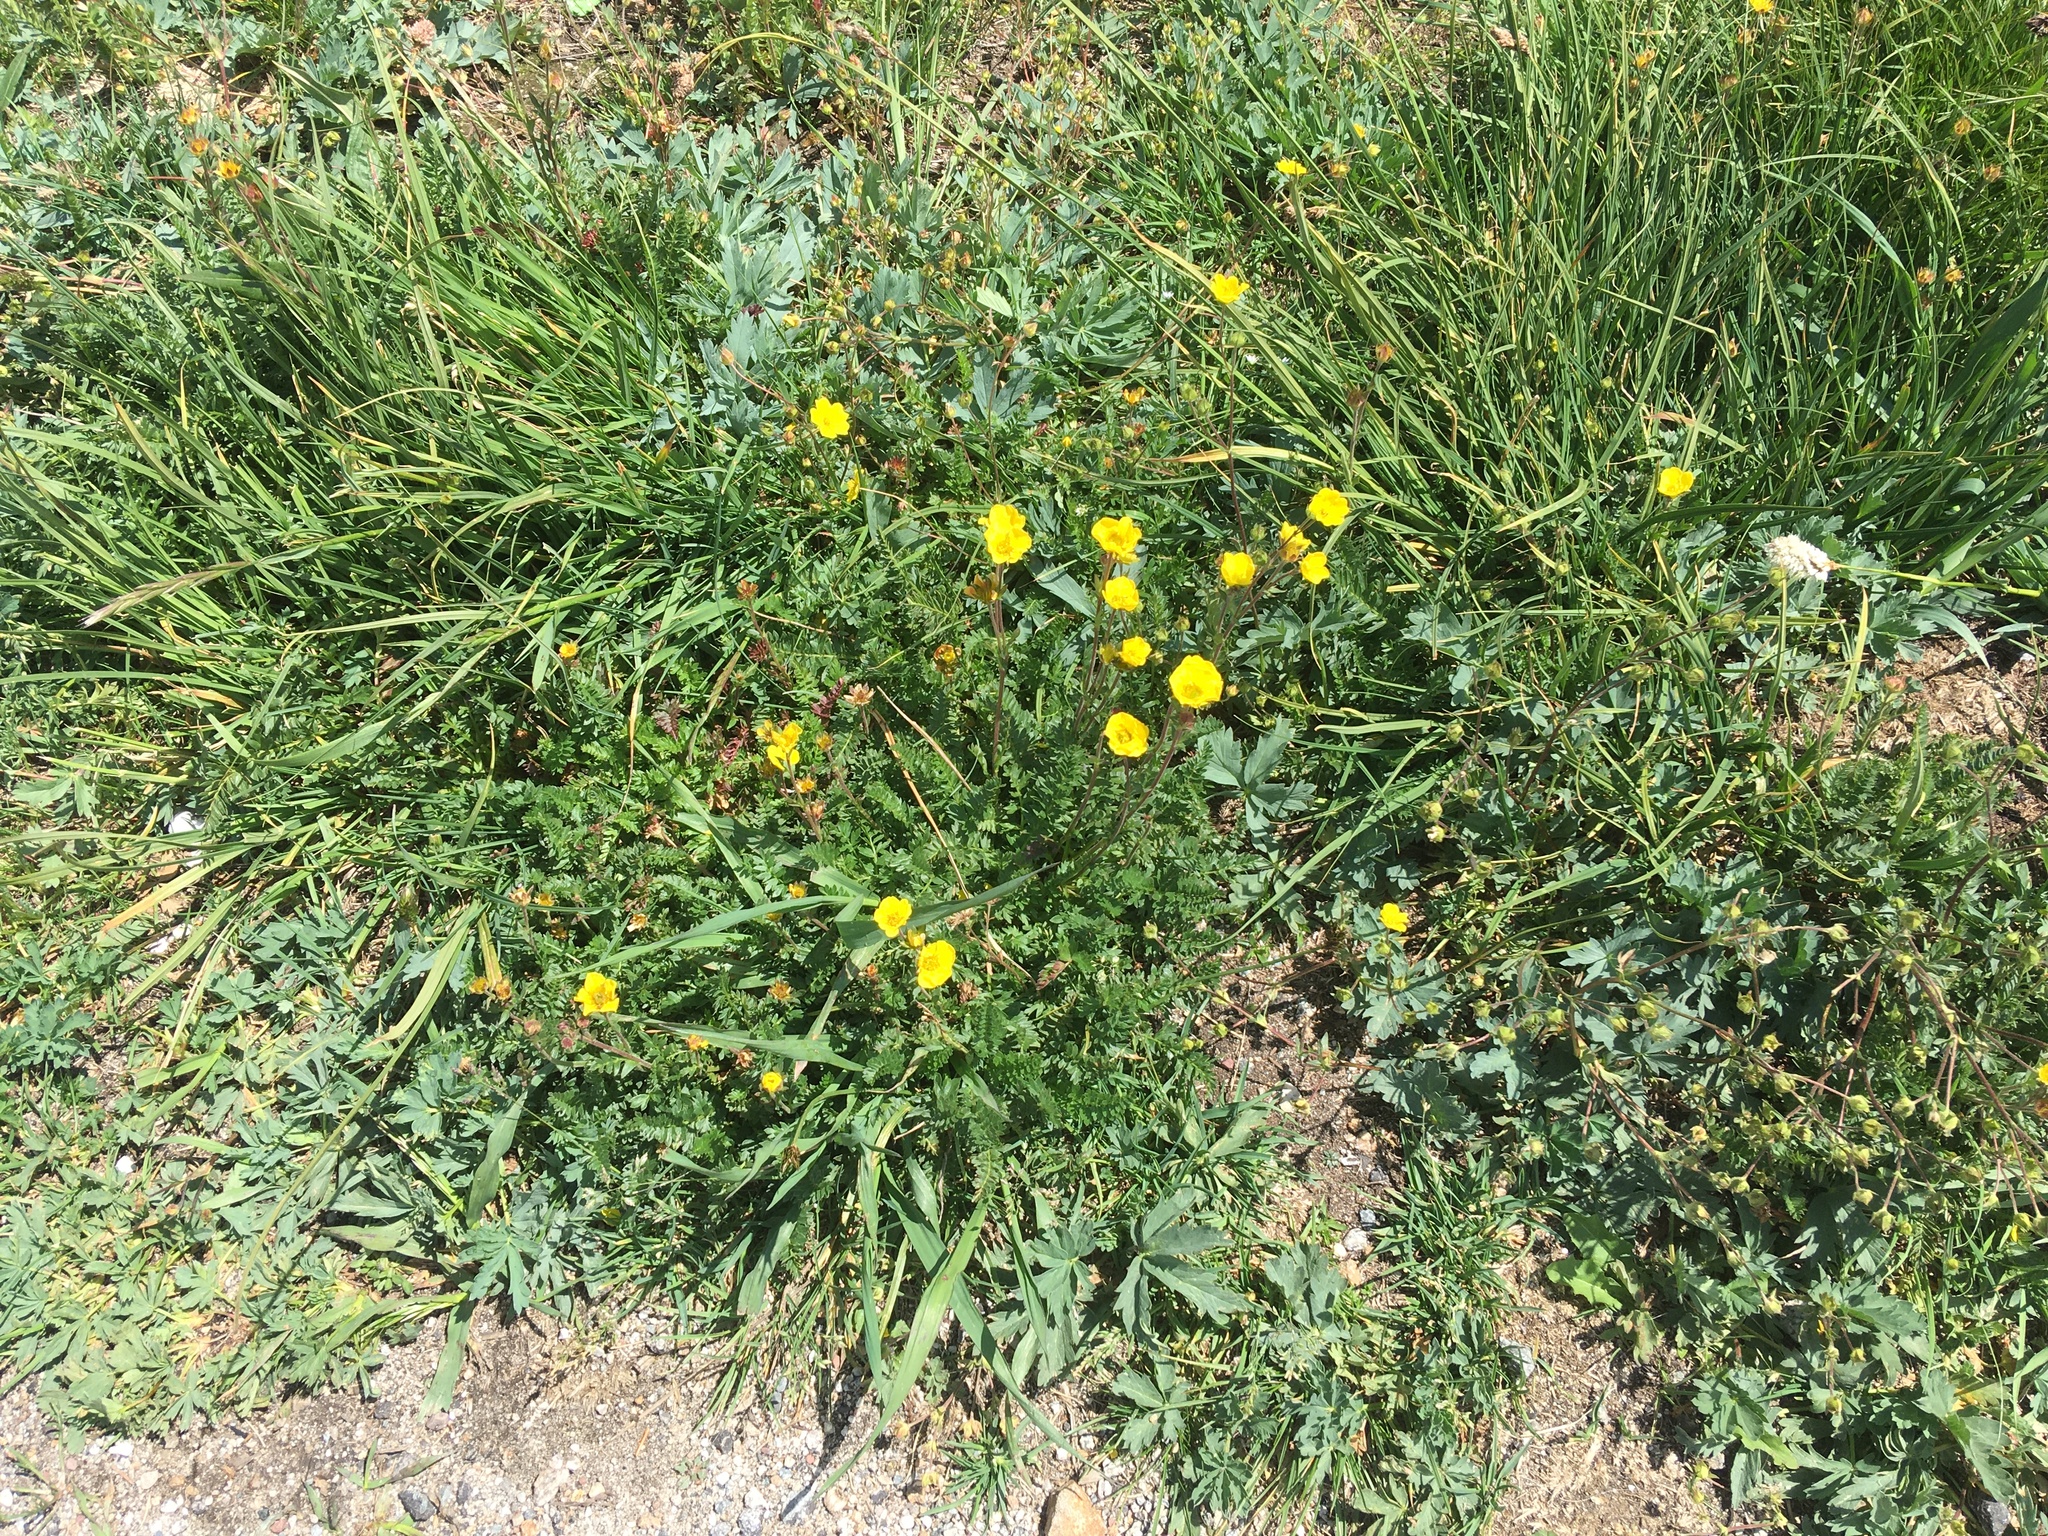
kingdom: Plantae
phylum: Tracheophyta
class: Magnoliopsida
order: Rosales
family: Rosaceae
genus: Geum
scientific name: Geum rossii
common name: Alpine avens
